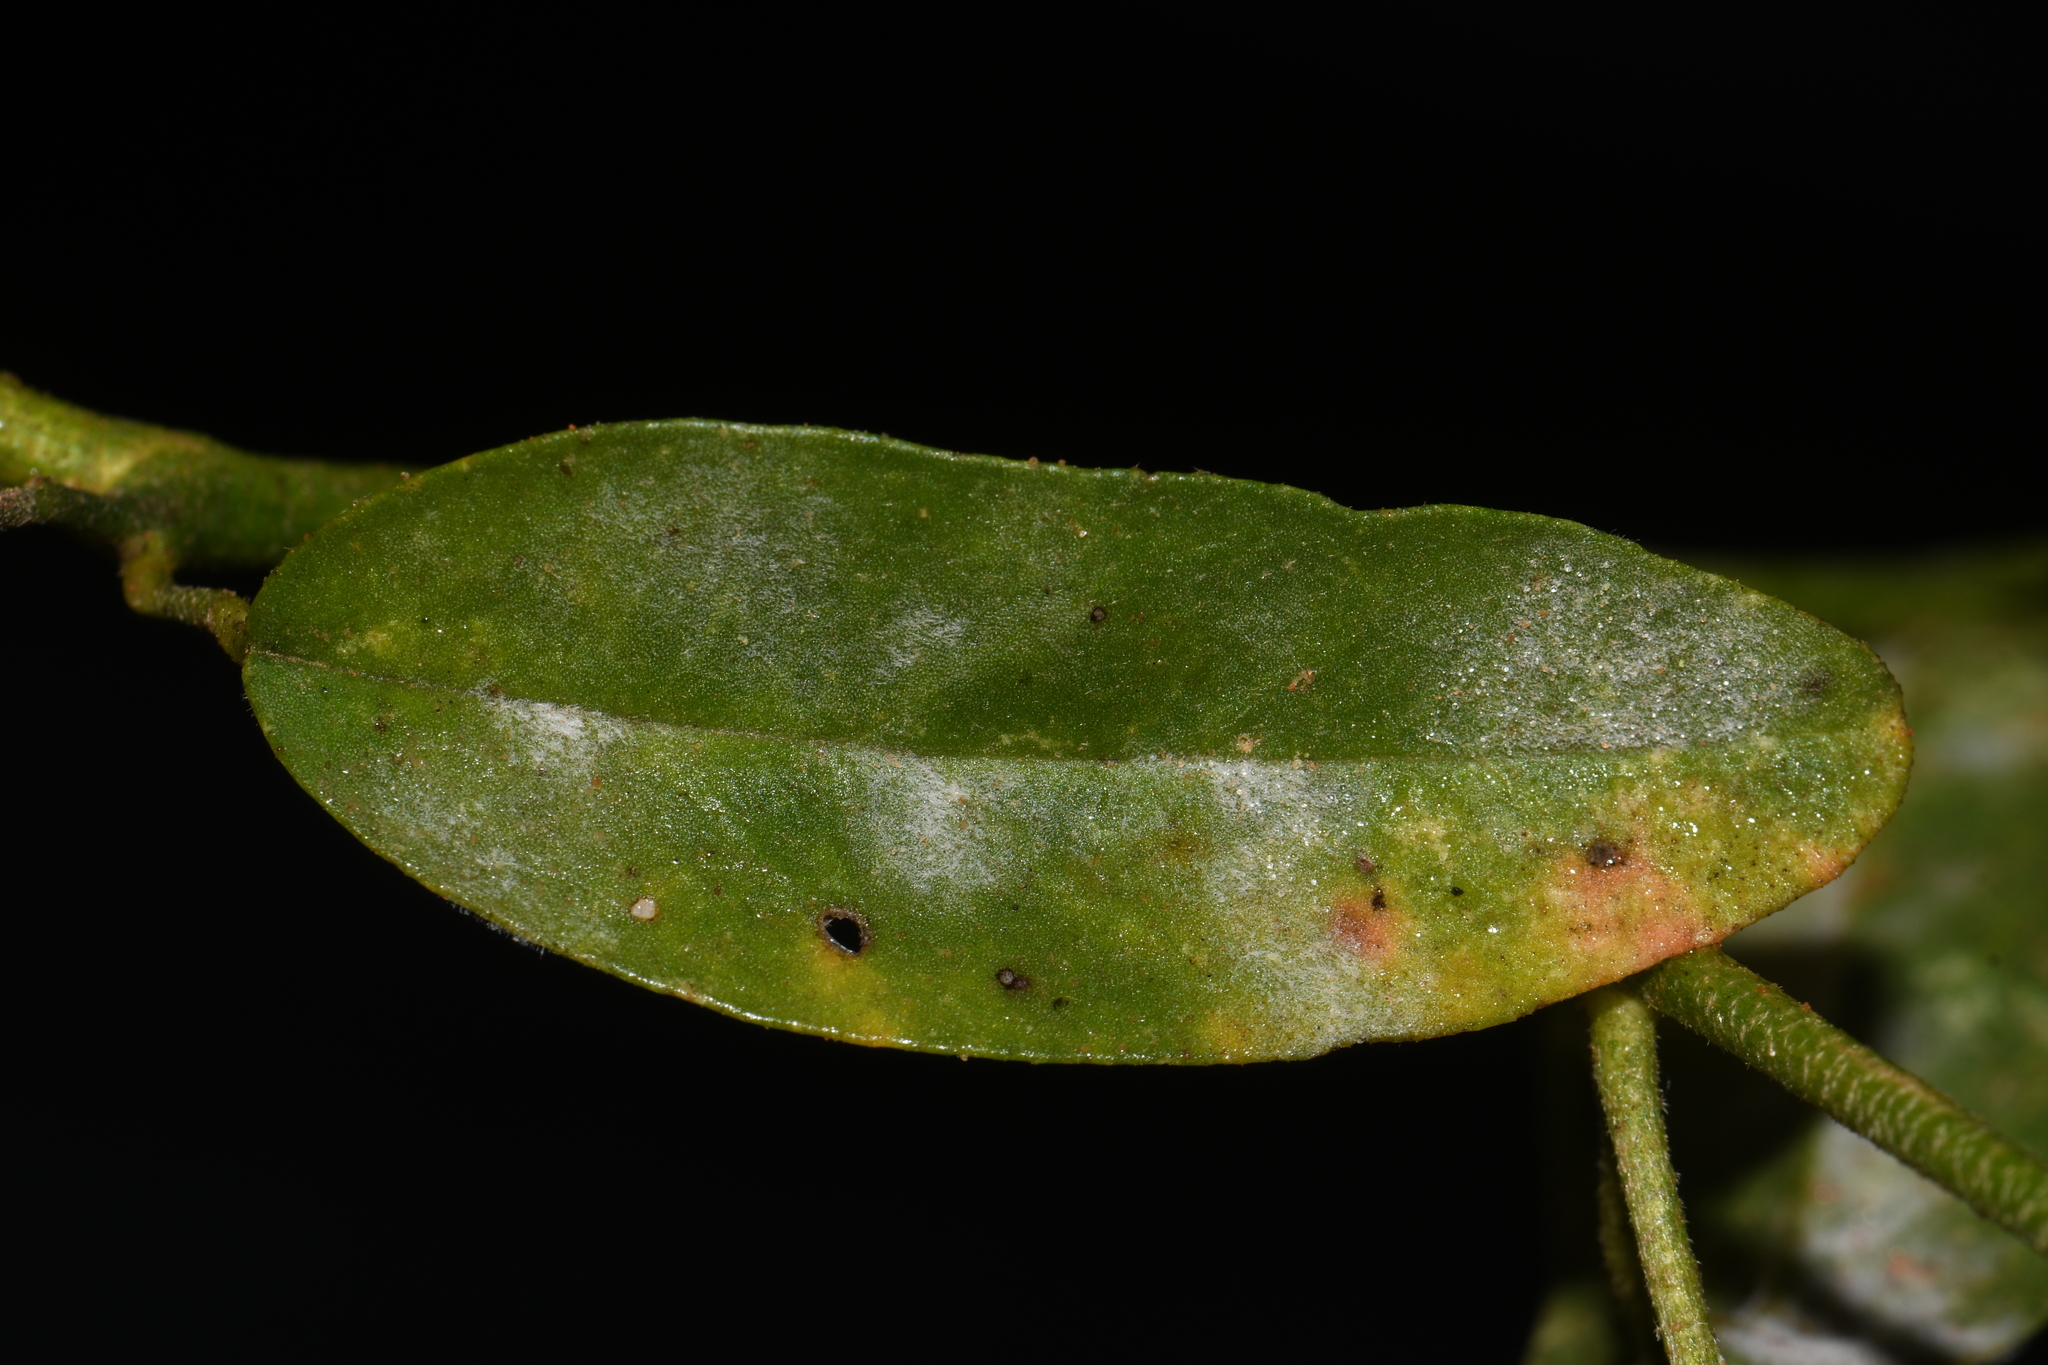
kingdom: Plantae
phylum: Tracheophyta
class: Magnoliopsida
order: Malpighiales
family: Euphorbiaceae
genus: Croton
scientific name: Croton texensis
